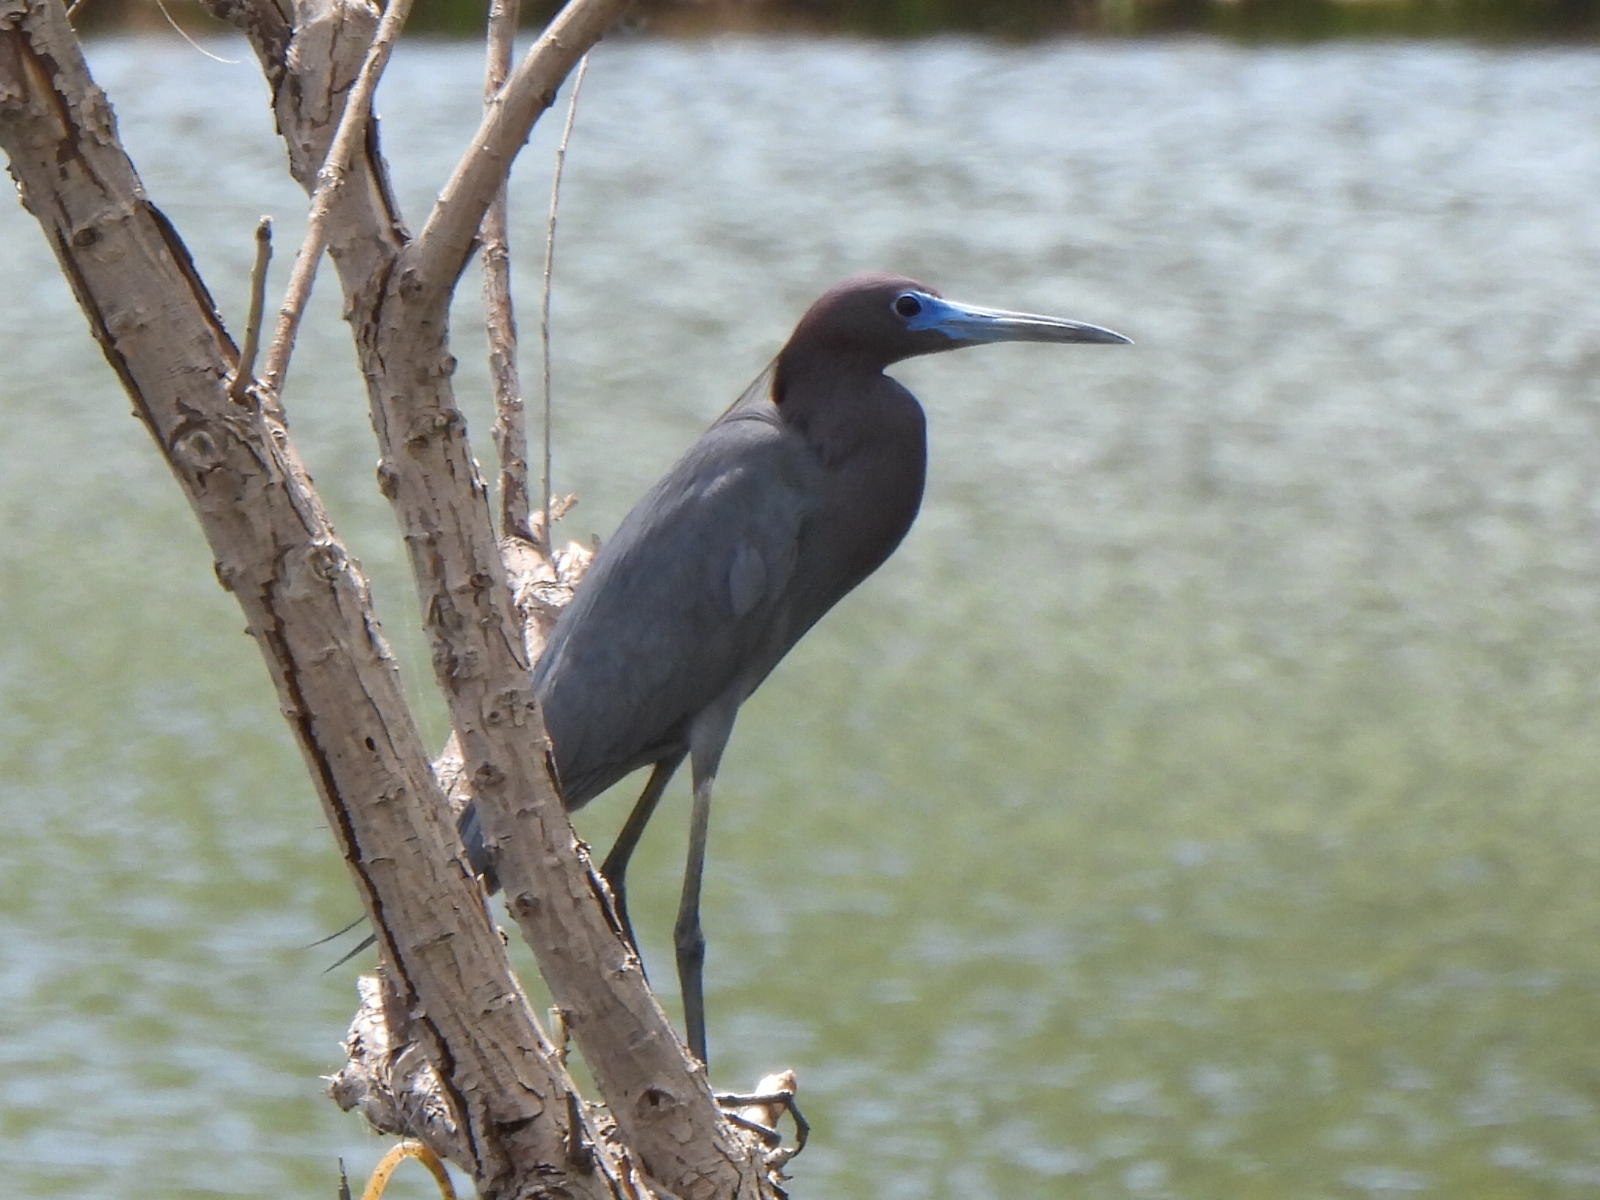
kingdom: Animalia
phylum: Chordata
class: Aves
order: Pelecaniformes
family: Ardeidae
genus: Egretta
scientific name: Egretta caerulea
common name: Little blue heron
